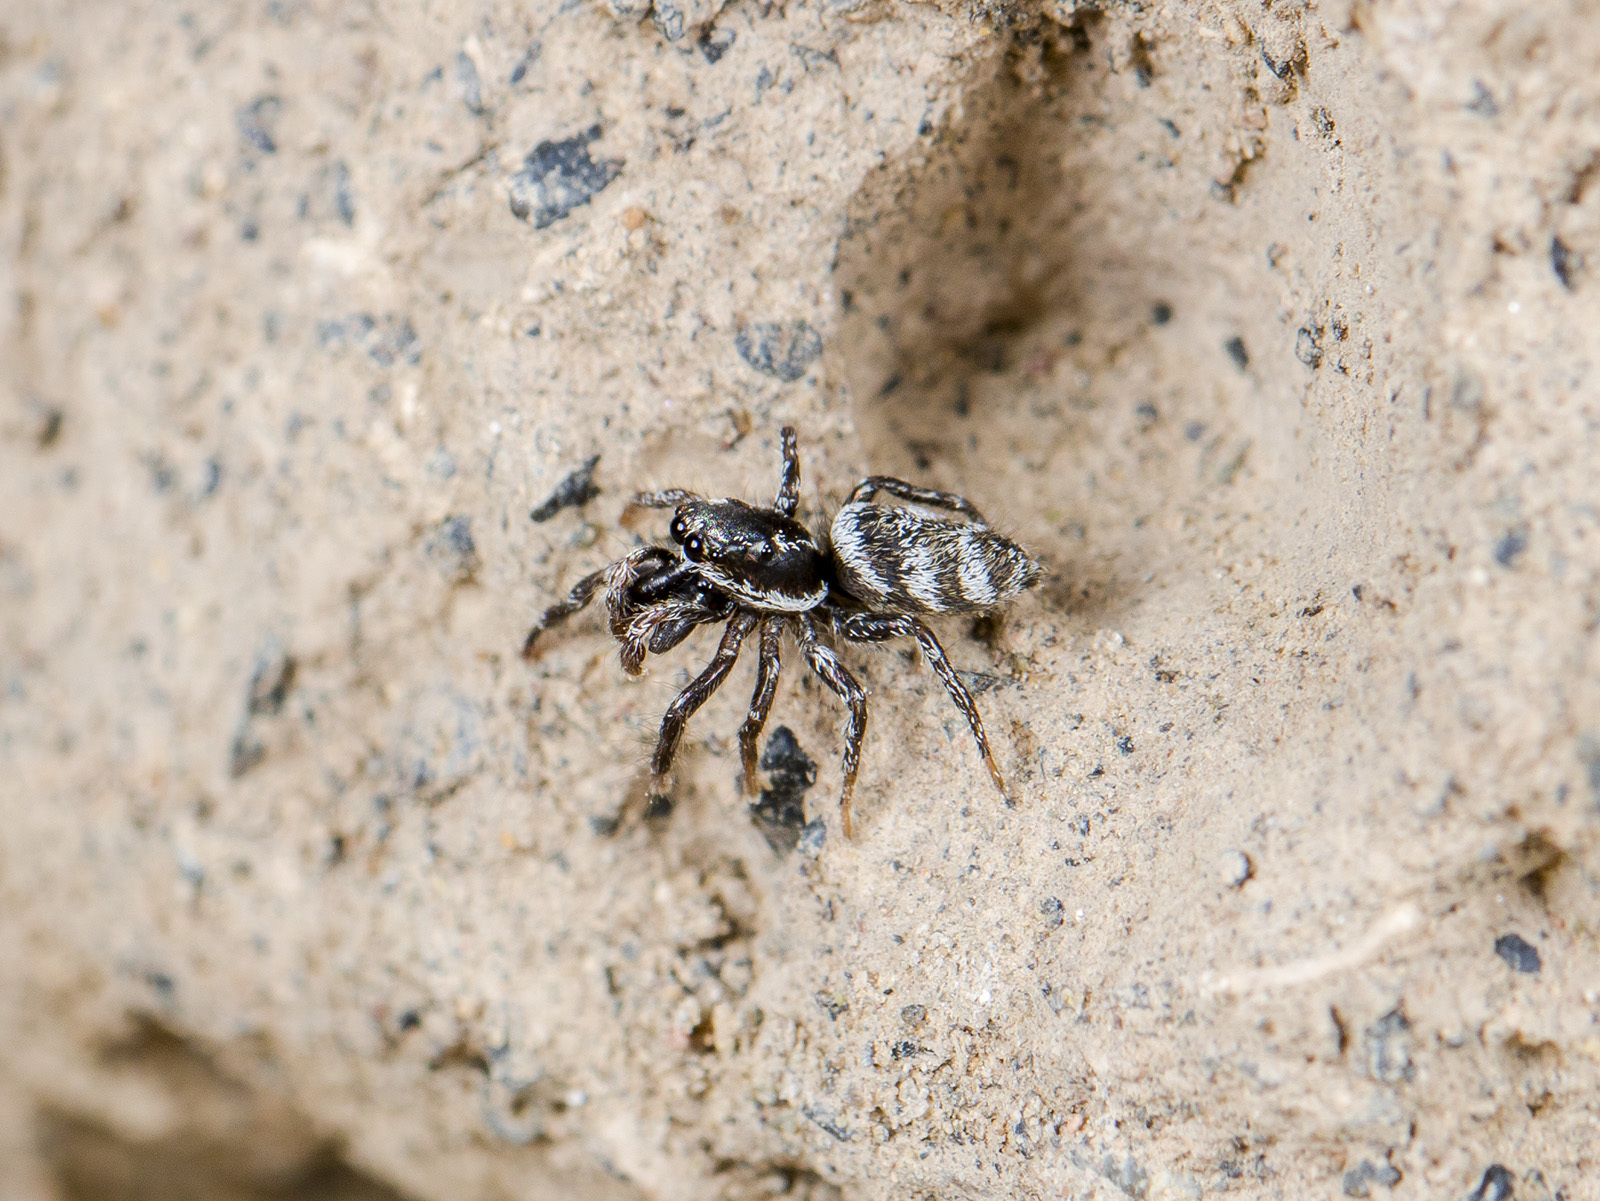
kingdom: Animalia
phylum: Arthropoda
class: Arachnida
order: Araneae
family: Salticidae
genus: Salticus
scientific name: Salticus tricinctus
